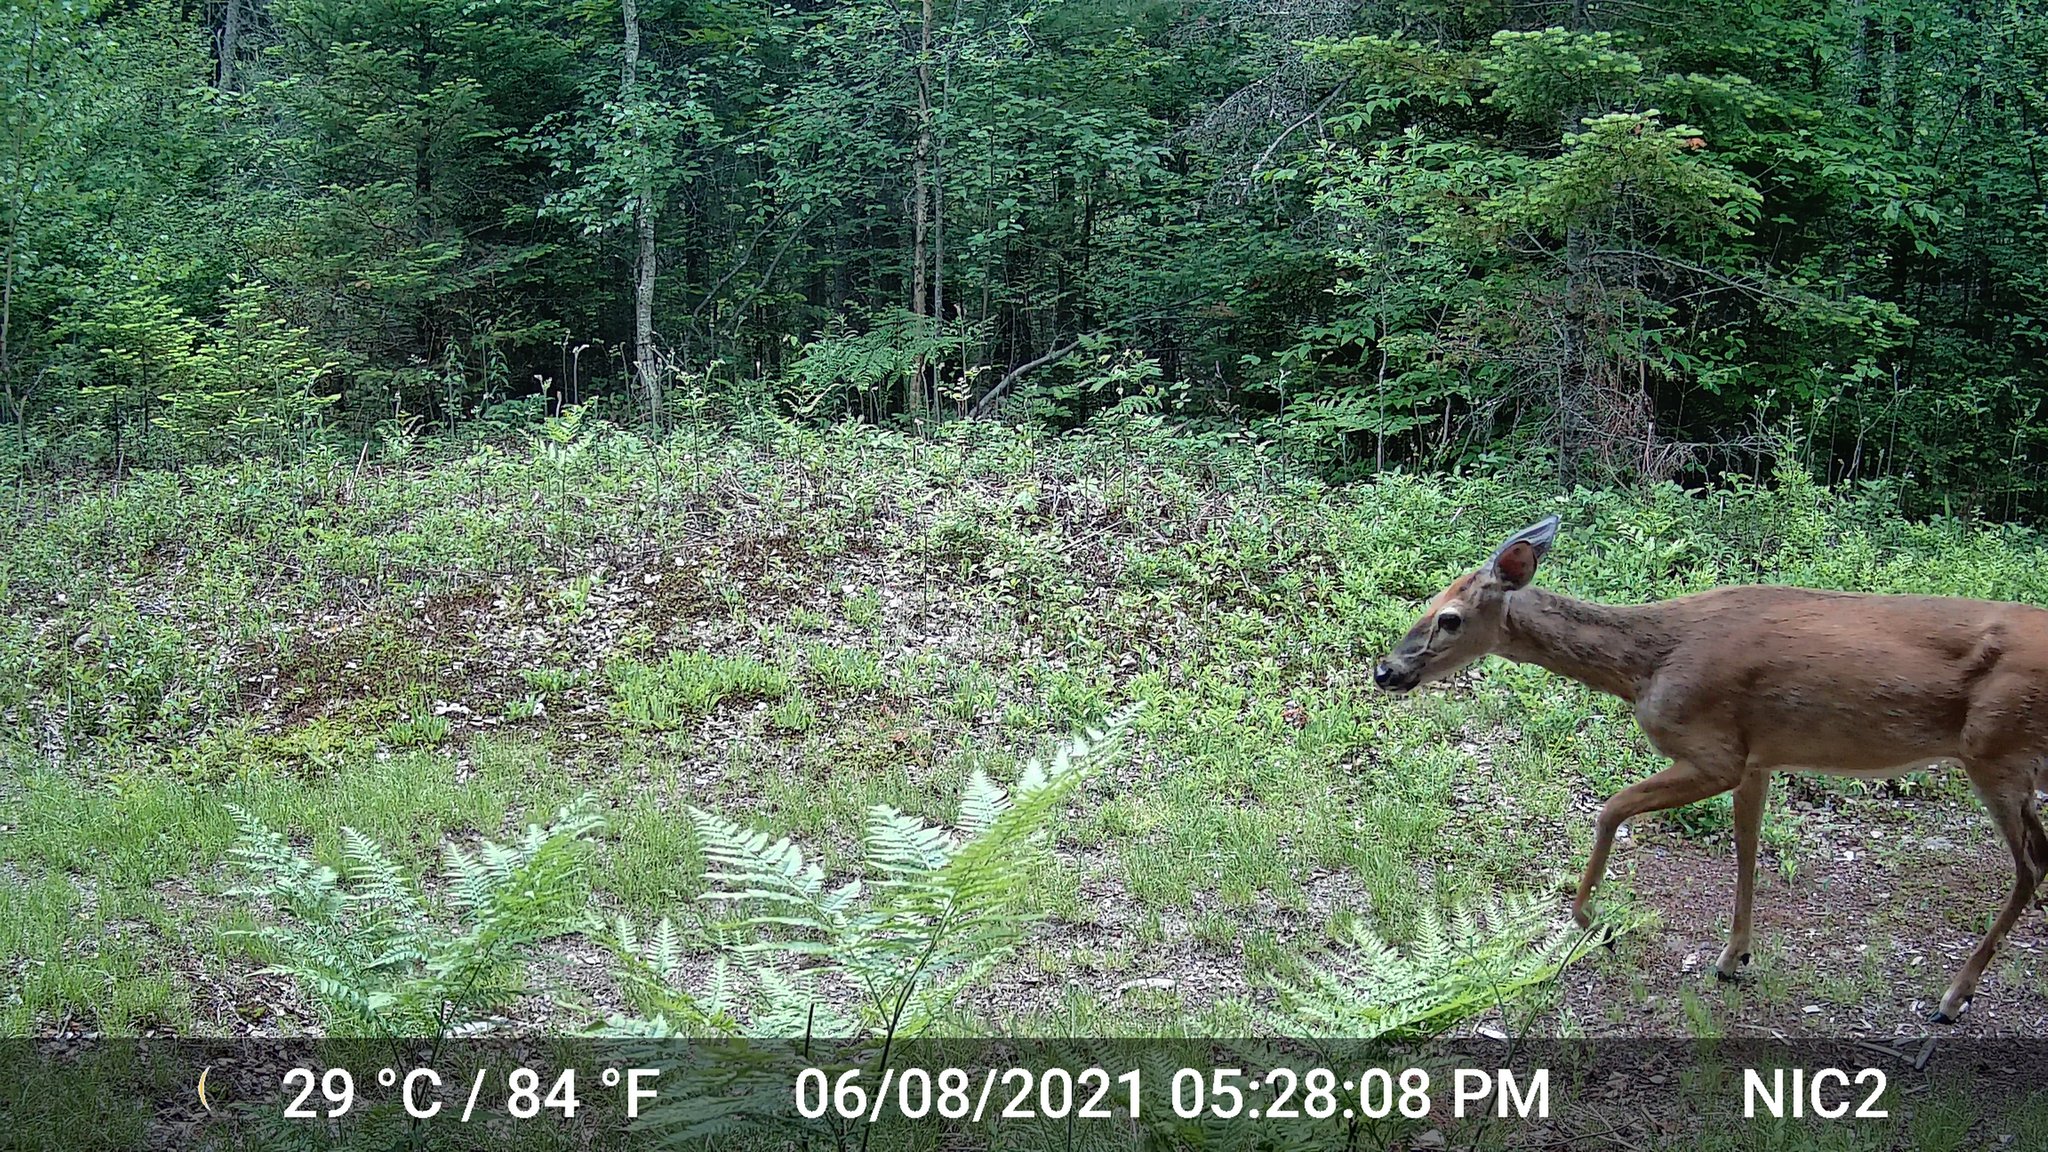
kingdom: Animalia
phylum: Chordata
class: Mammalia
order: Artiodactyla
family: Cervidae
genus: Odocoileus
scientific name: Odocoileus virginianus
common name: White-tailed deer
